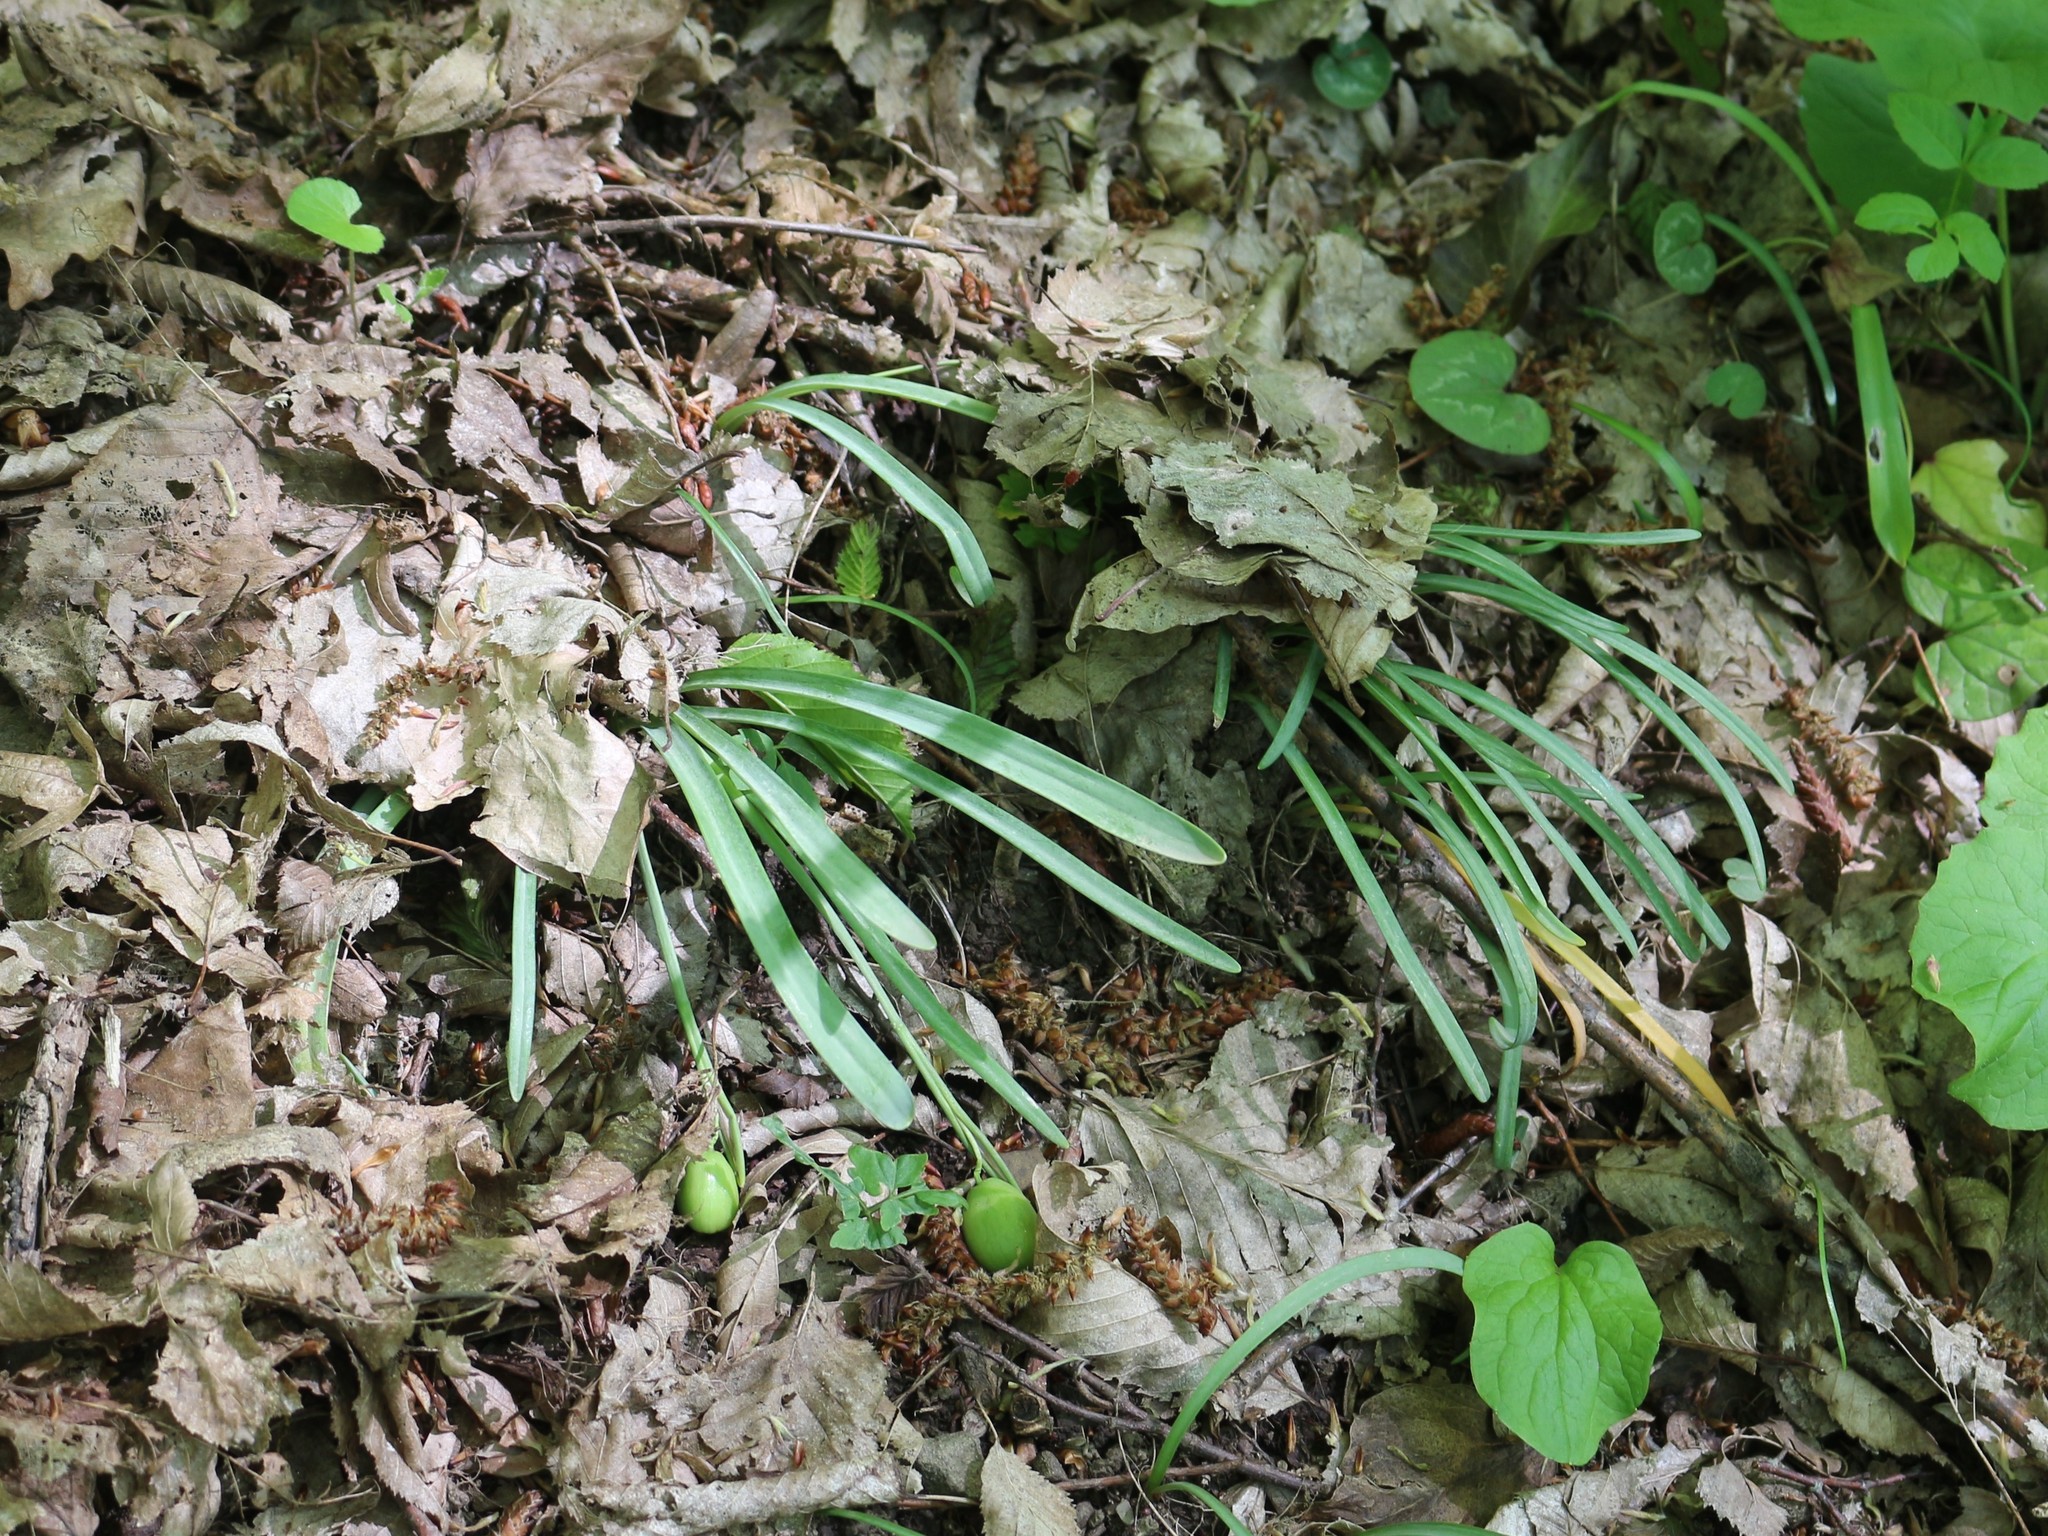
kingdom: Plantae
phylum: Tracheophyta
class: Liliopsida
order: Asparagales
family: Amaryllidaceae
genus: Galanthus
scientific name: Galanthus alpinus
